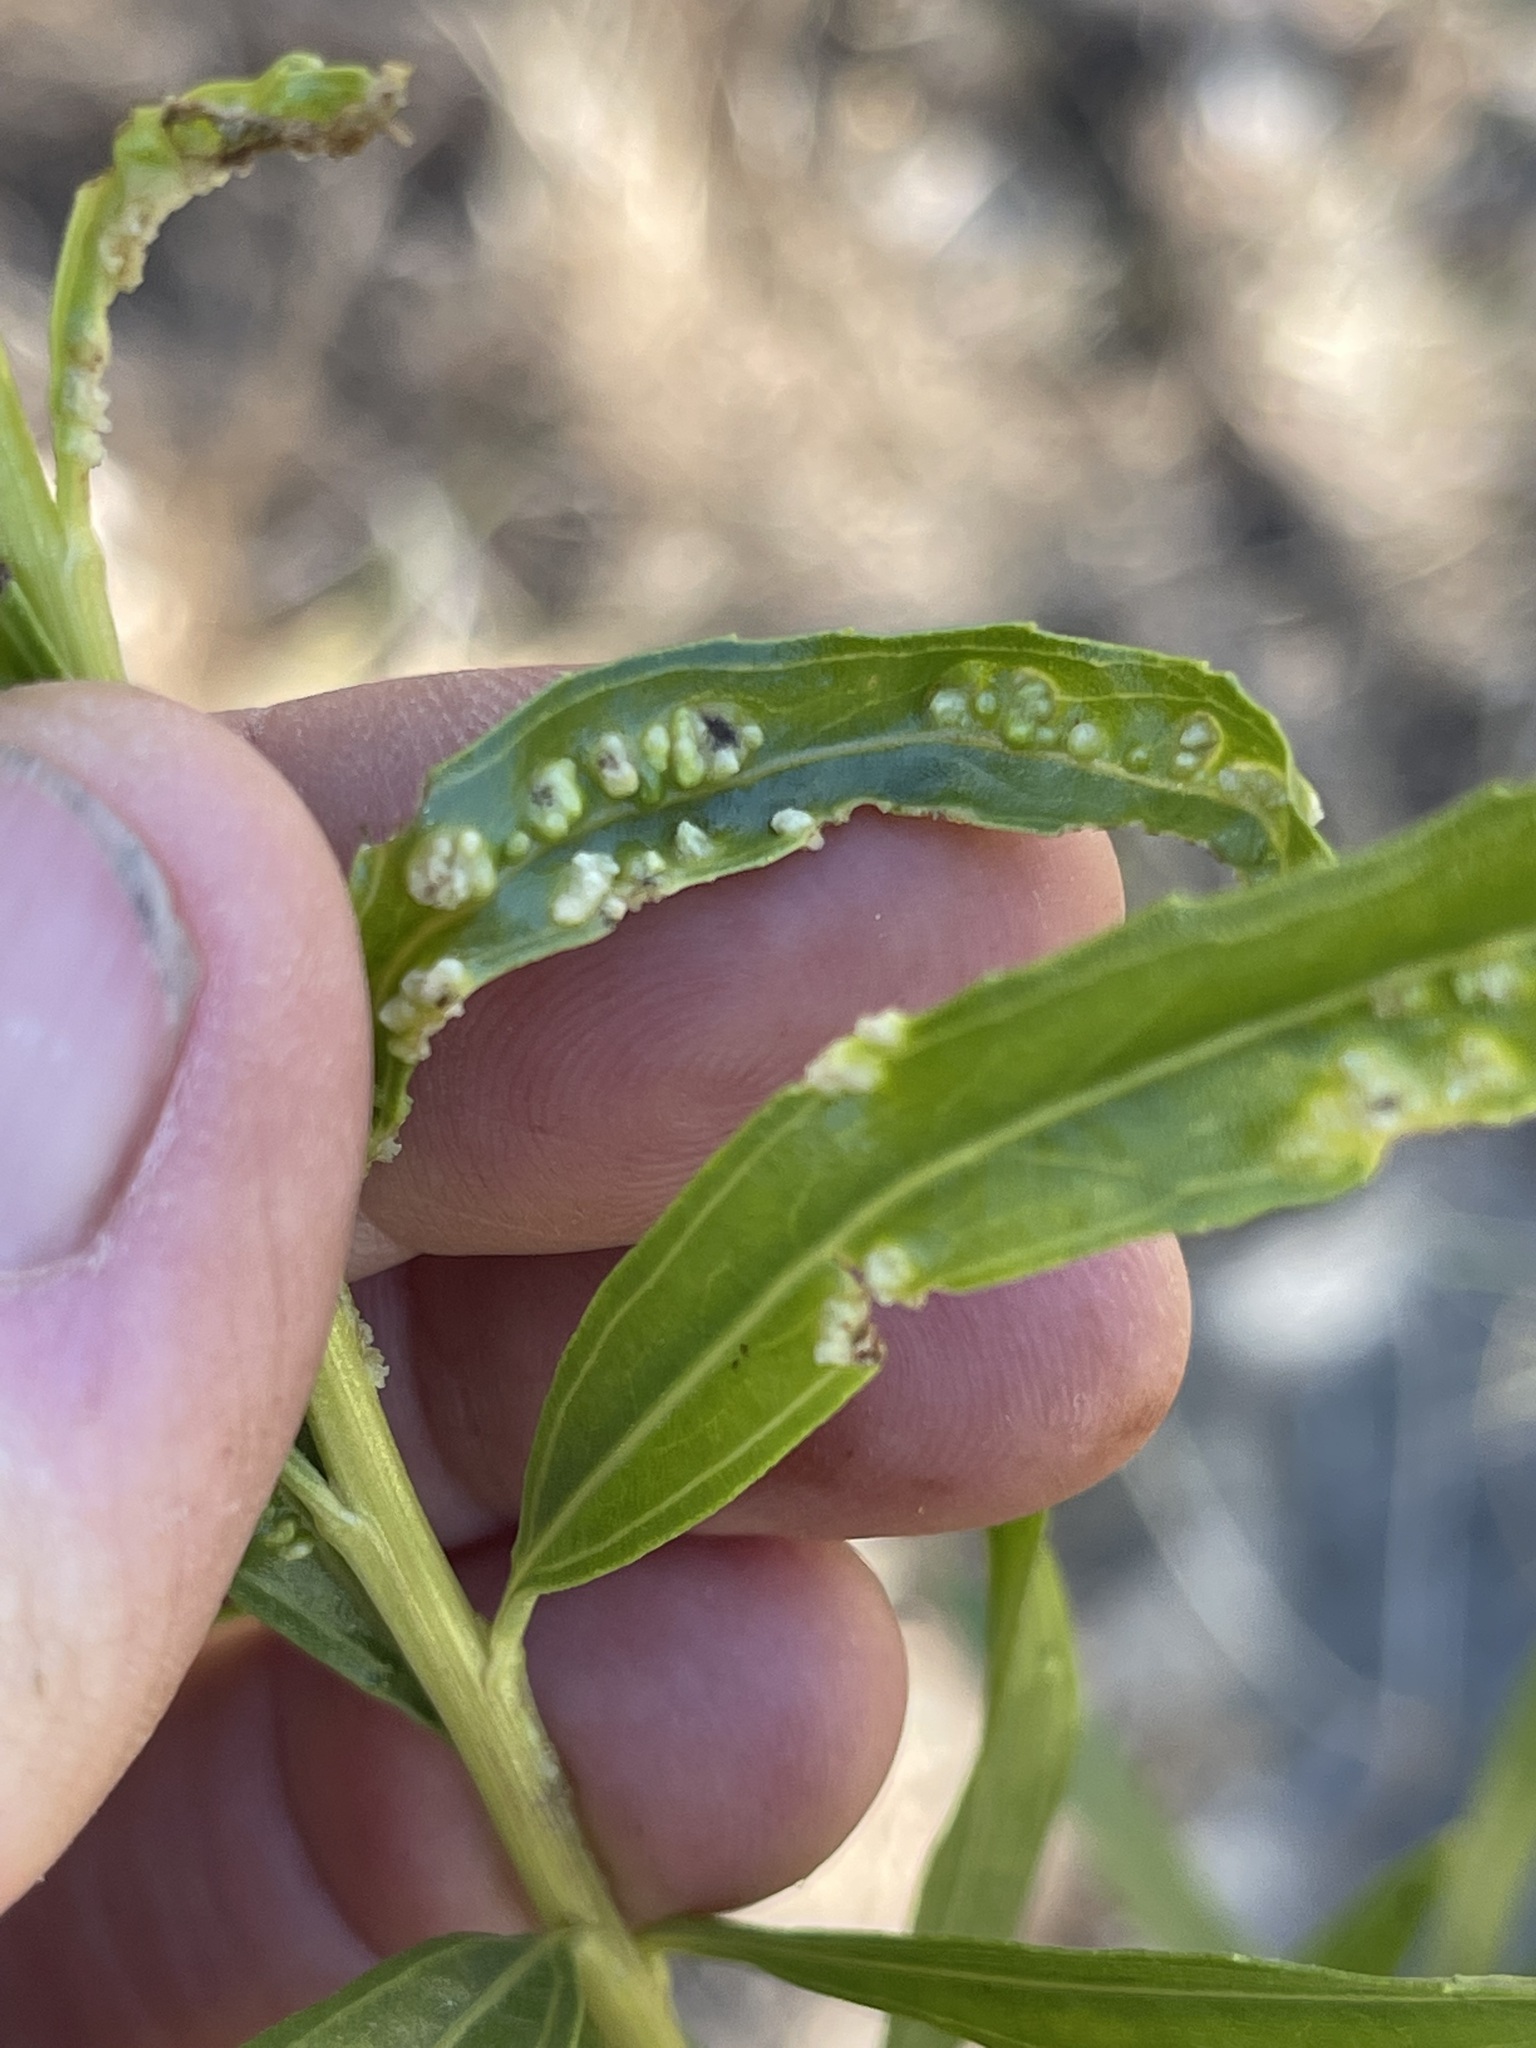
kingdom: Animalia
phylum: Arthropoda
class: Arachnida
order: Trombidiformes
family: Eriophyidae
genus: Aceria
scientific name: Aceria
